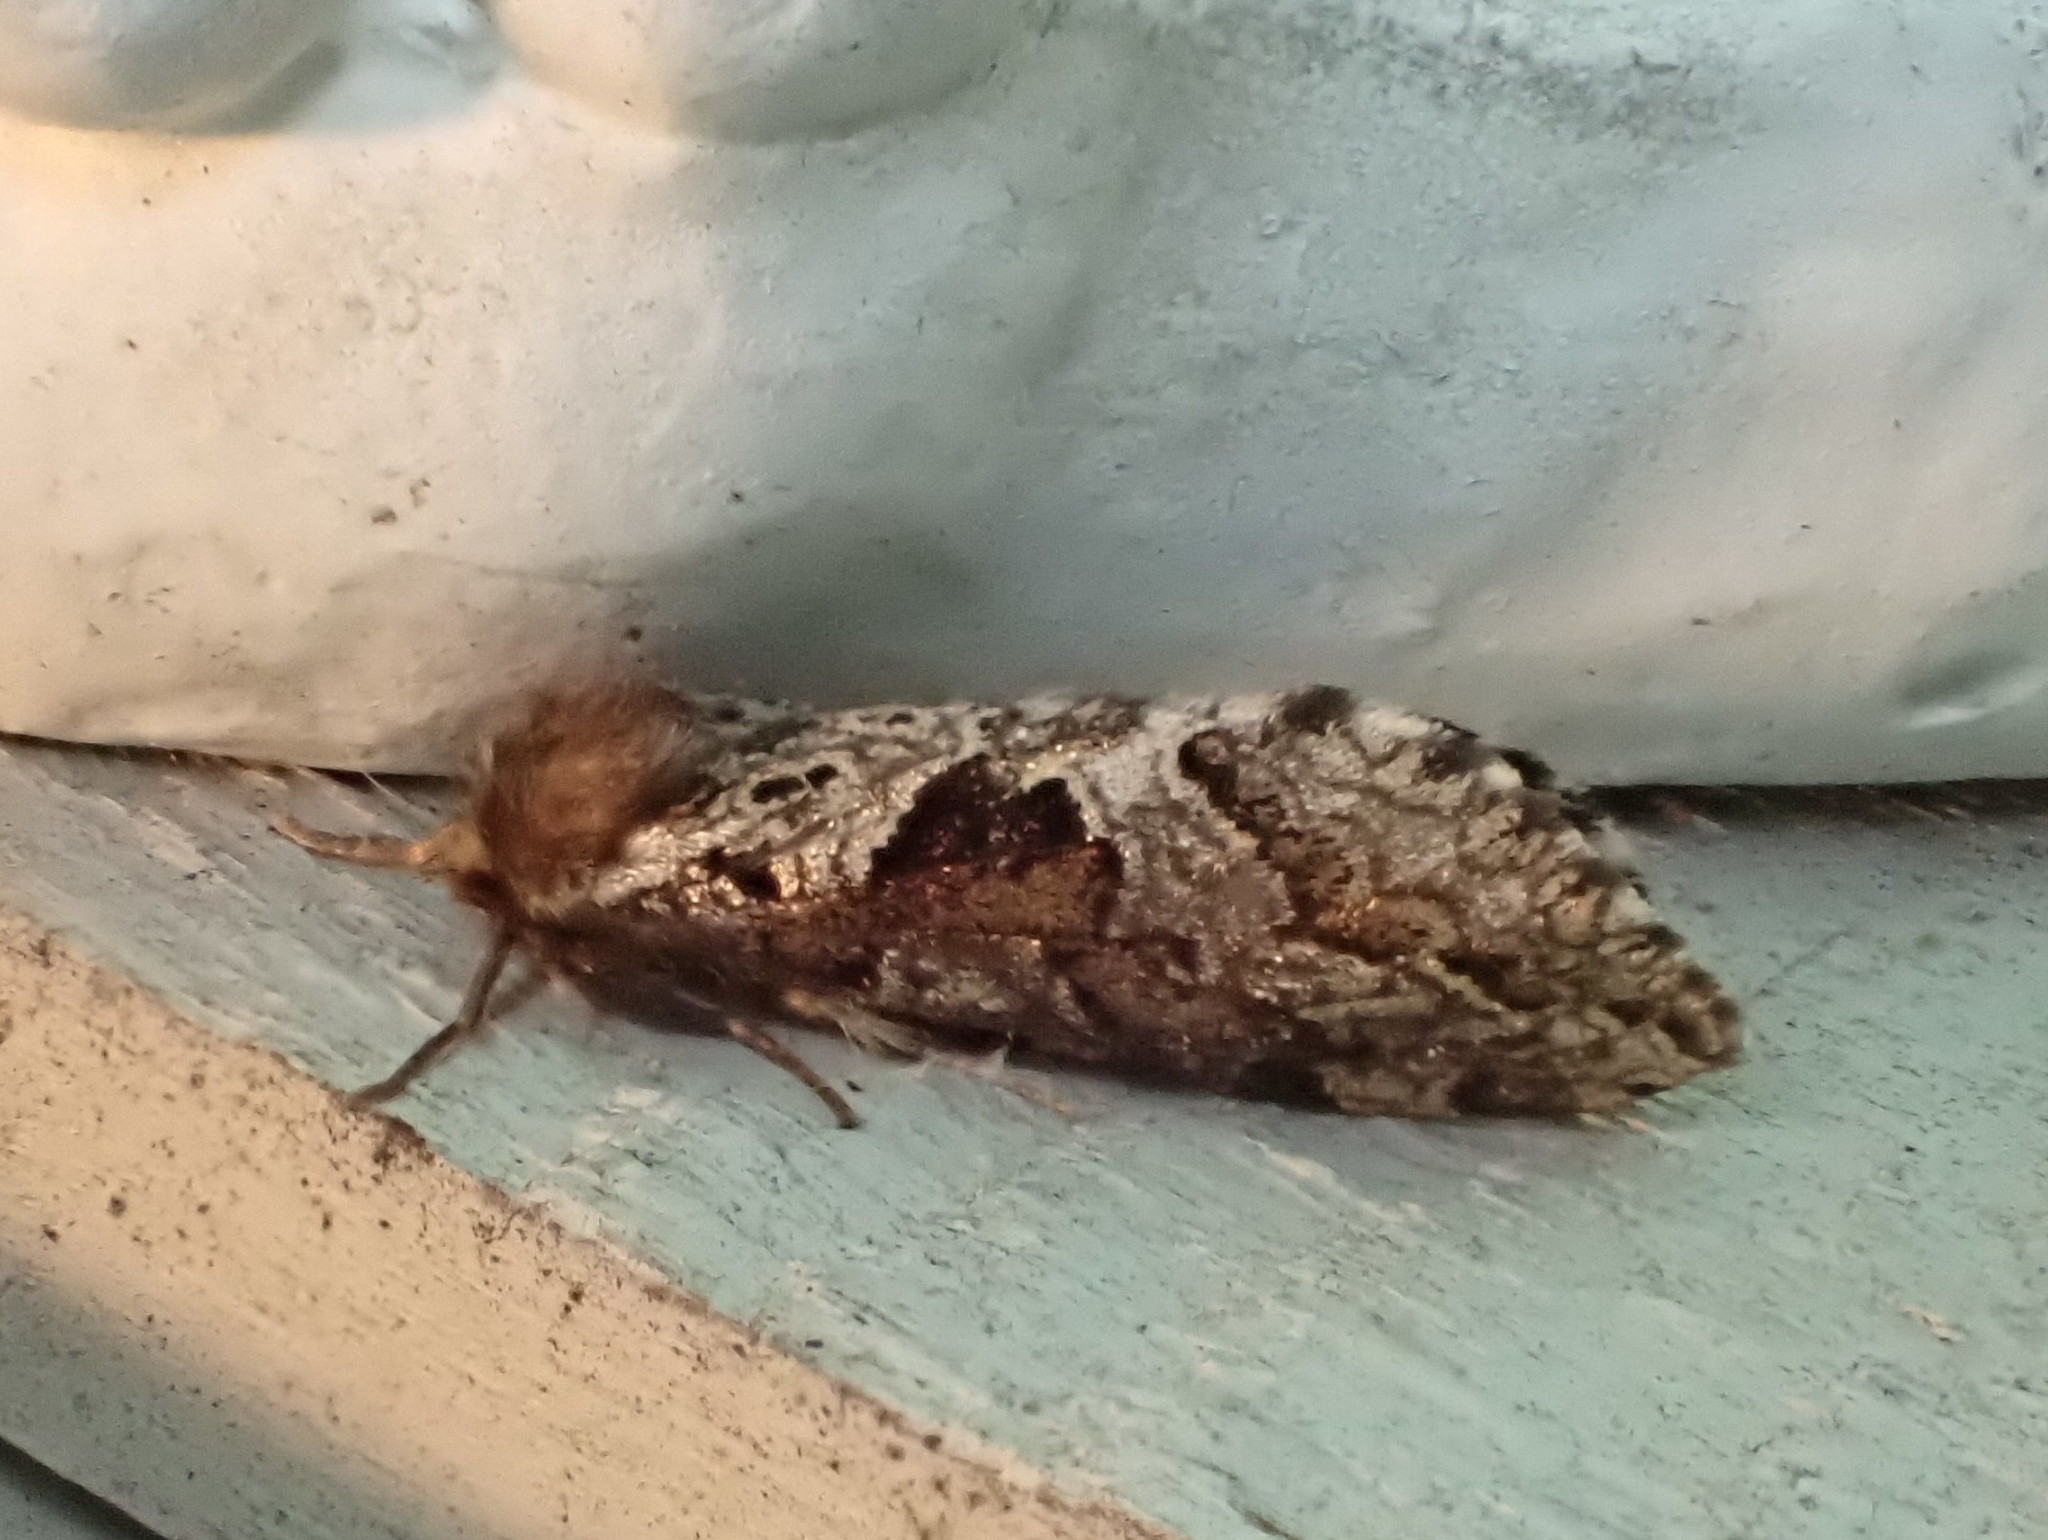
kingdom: Animalia
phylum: Arthropoda
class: Insecta
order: Lepidoptera
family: Hepialidae
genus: Korscheltellus
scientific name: Korscheltellus gracilis
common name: Conifer swift moth
